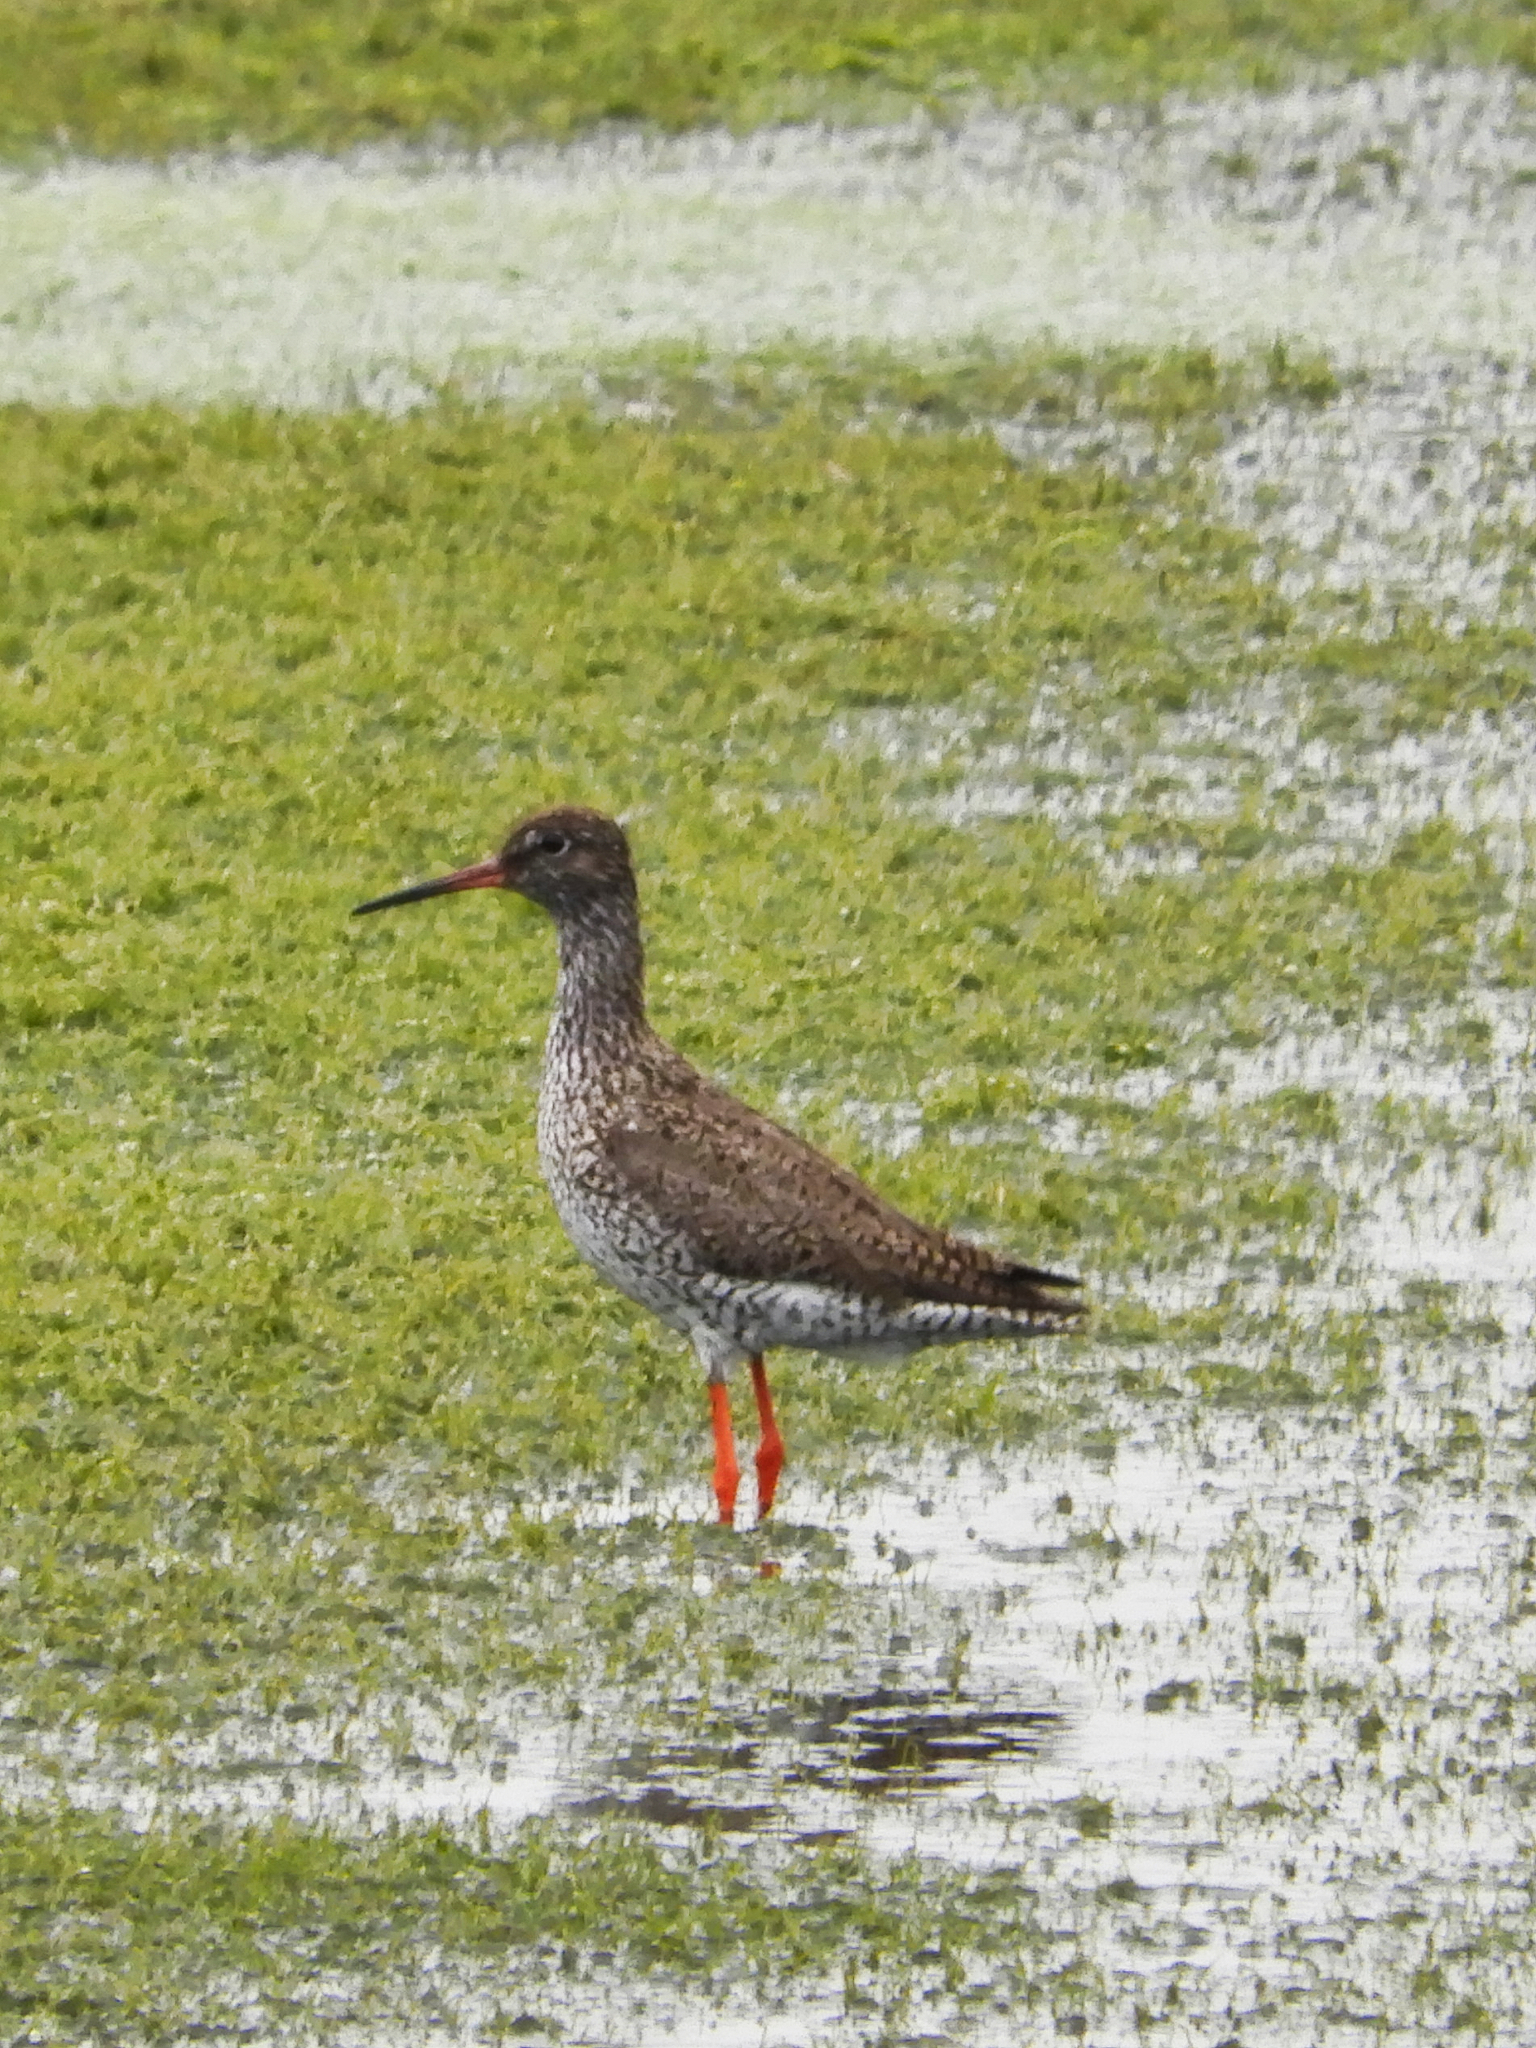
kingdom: Animalia
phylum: Chordata
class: Aves
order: Charadriiformes
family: Scolopacidae
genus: Tringa
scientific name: Tringa totanus
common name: Common redshank
